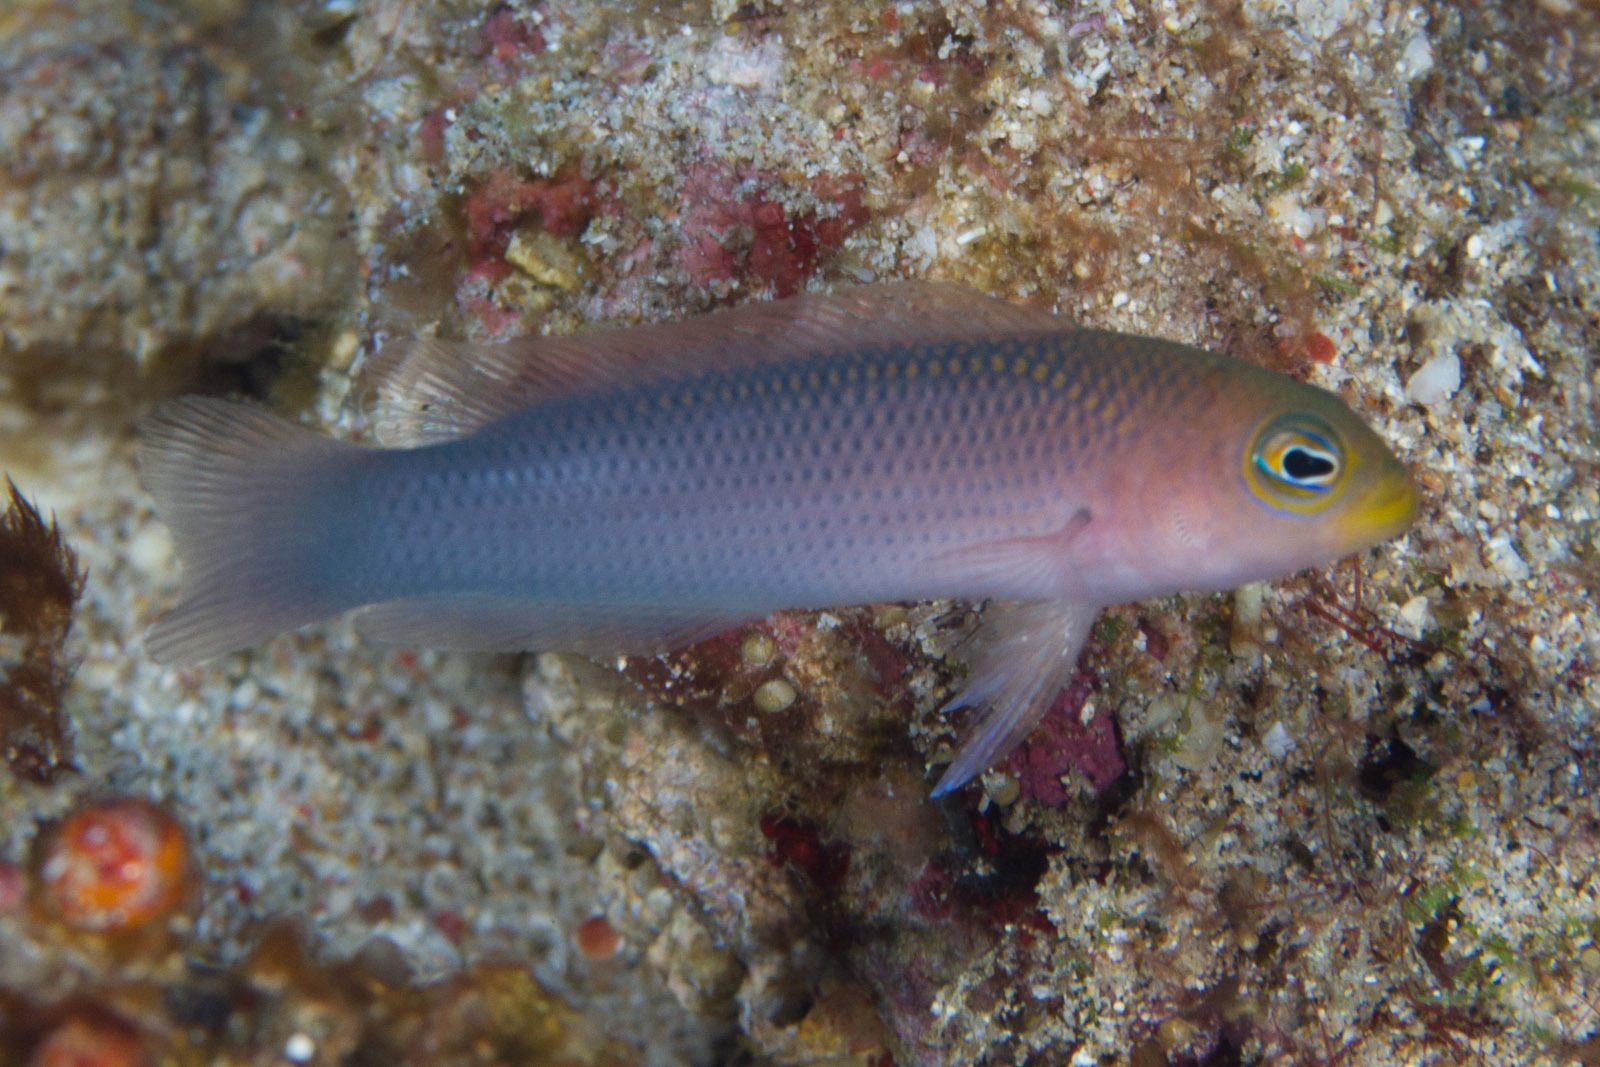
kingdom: Animalia
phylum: Chordata
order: Perciformes
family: Pseudochromidae
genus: Pseudochromis
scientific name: Pseudochromis aurulentus
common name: Yellowlip dottyback
